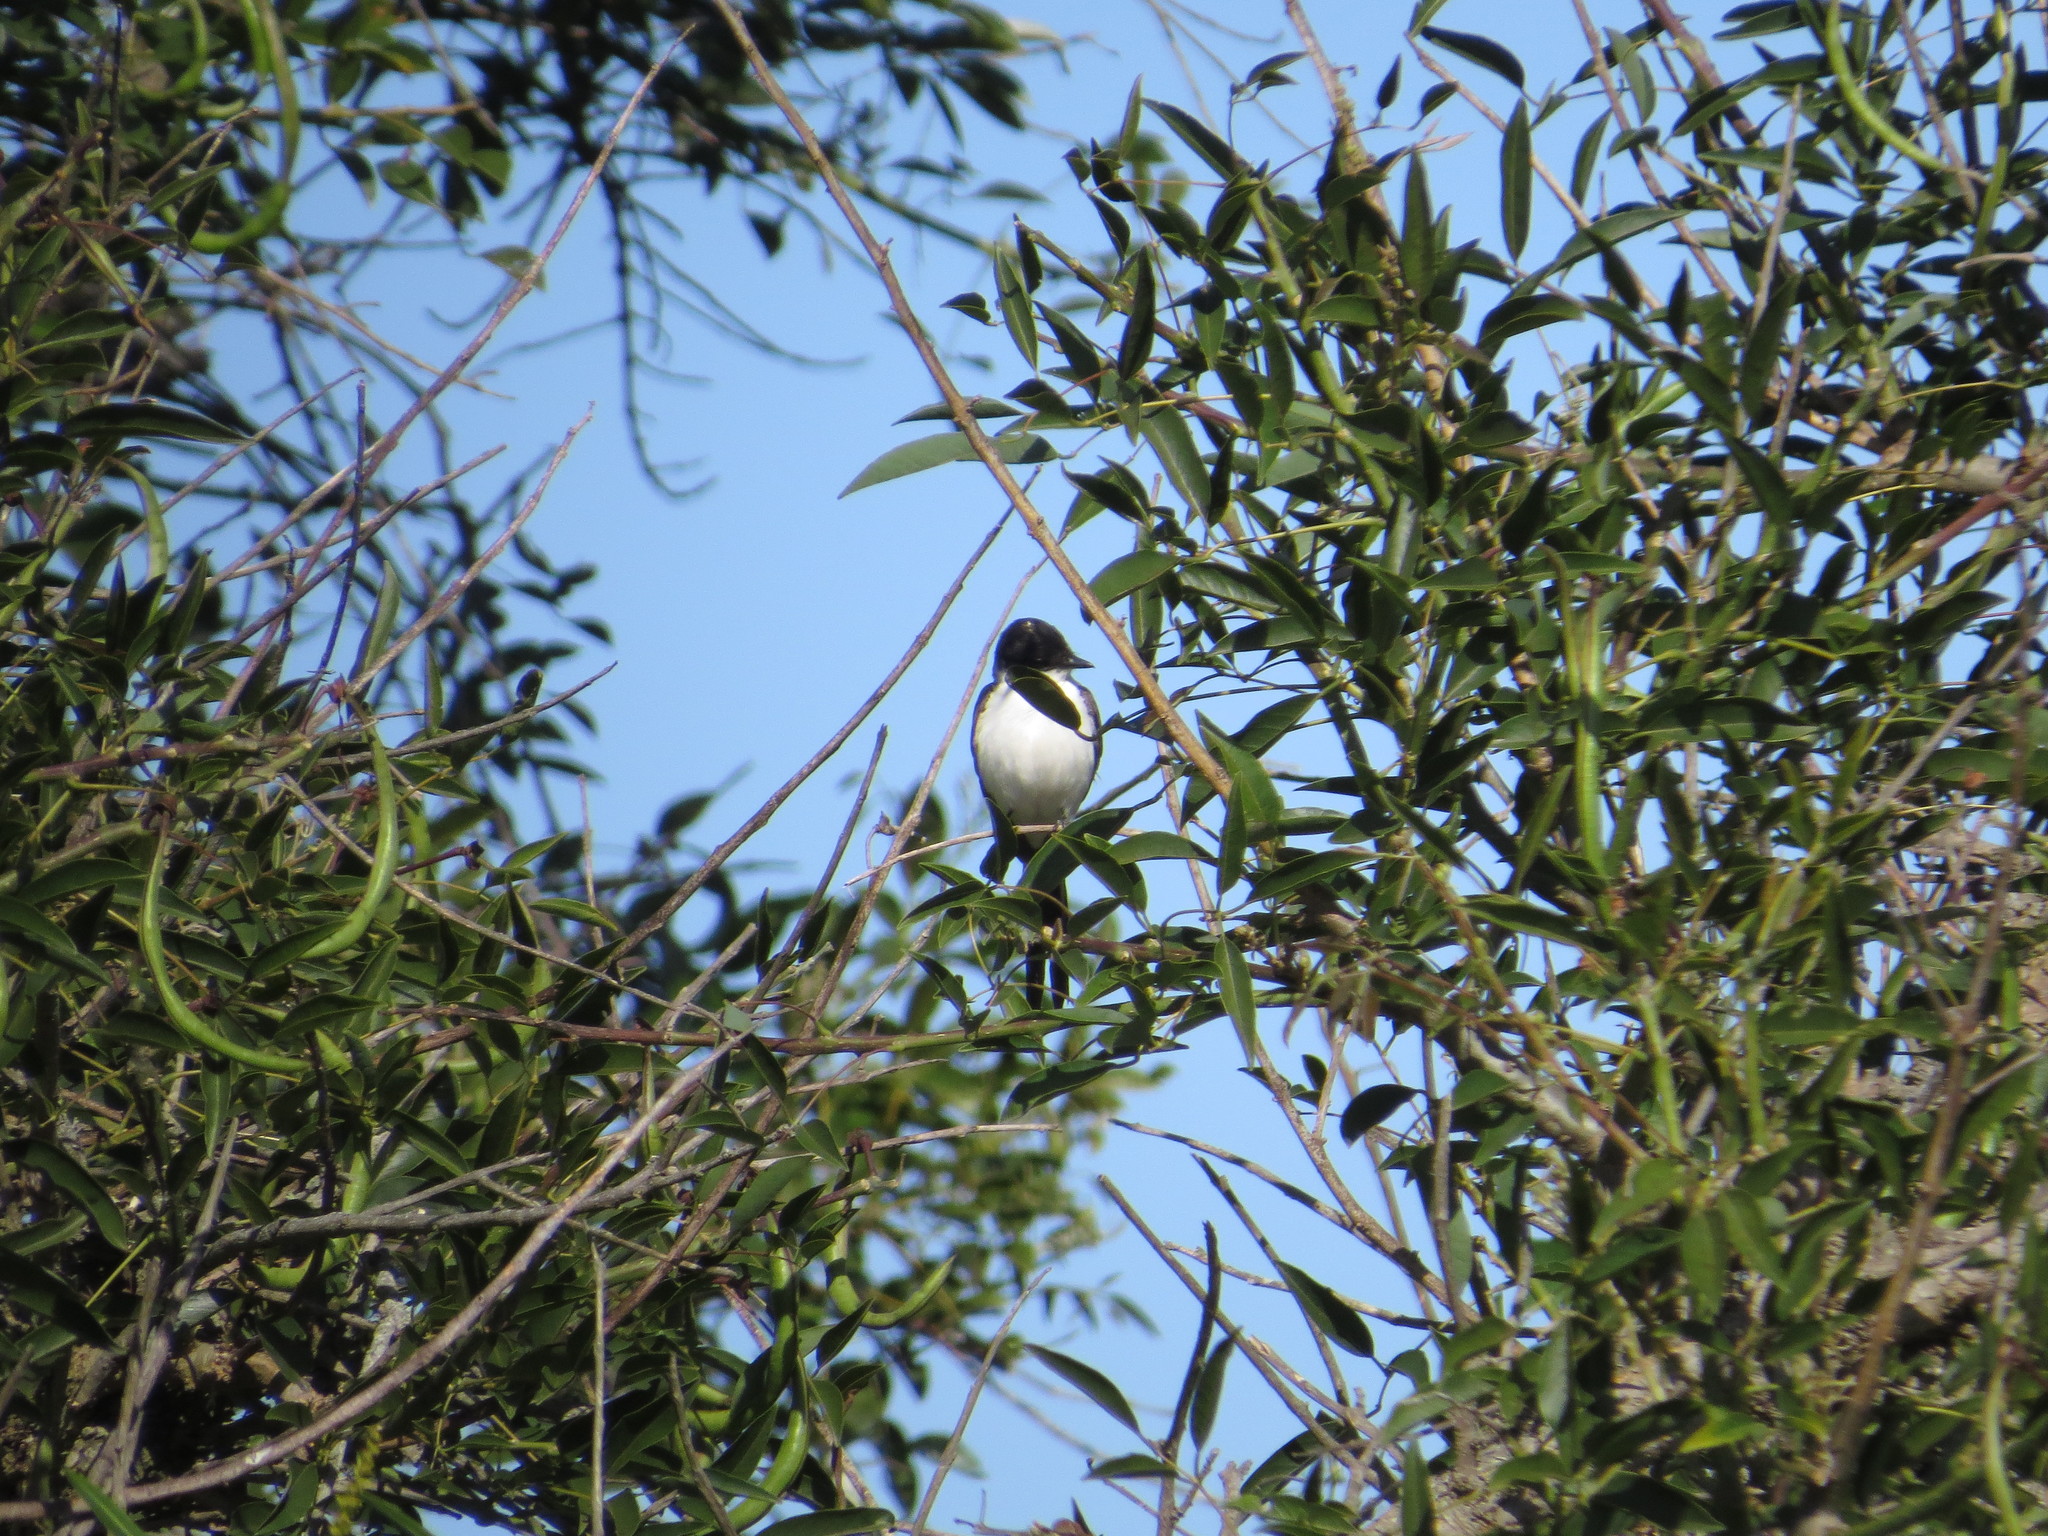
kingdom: Animalia
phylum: Chordata
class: Aves
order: Passeriformes
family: Tyrannidae
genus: Tyrannus
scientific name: Tyrannus savana
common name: Fork-tailed flycatcher
